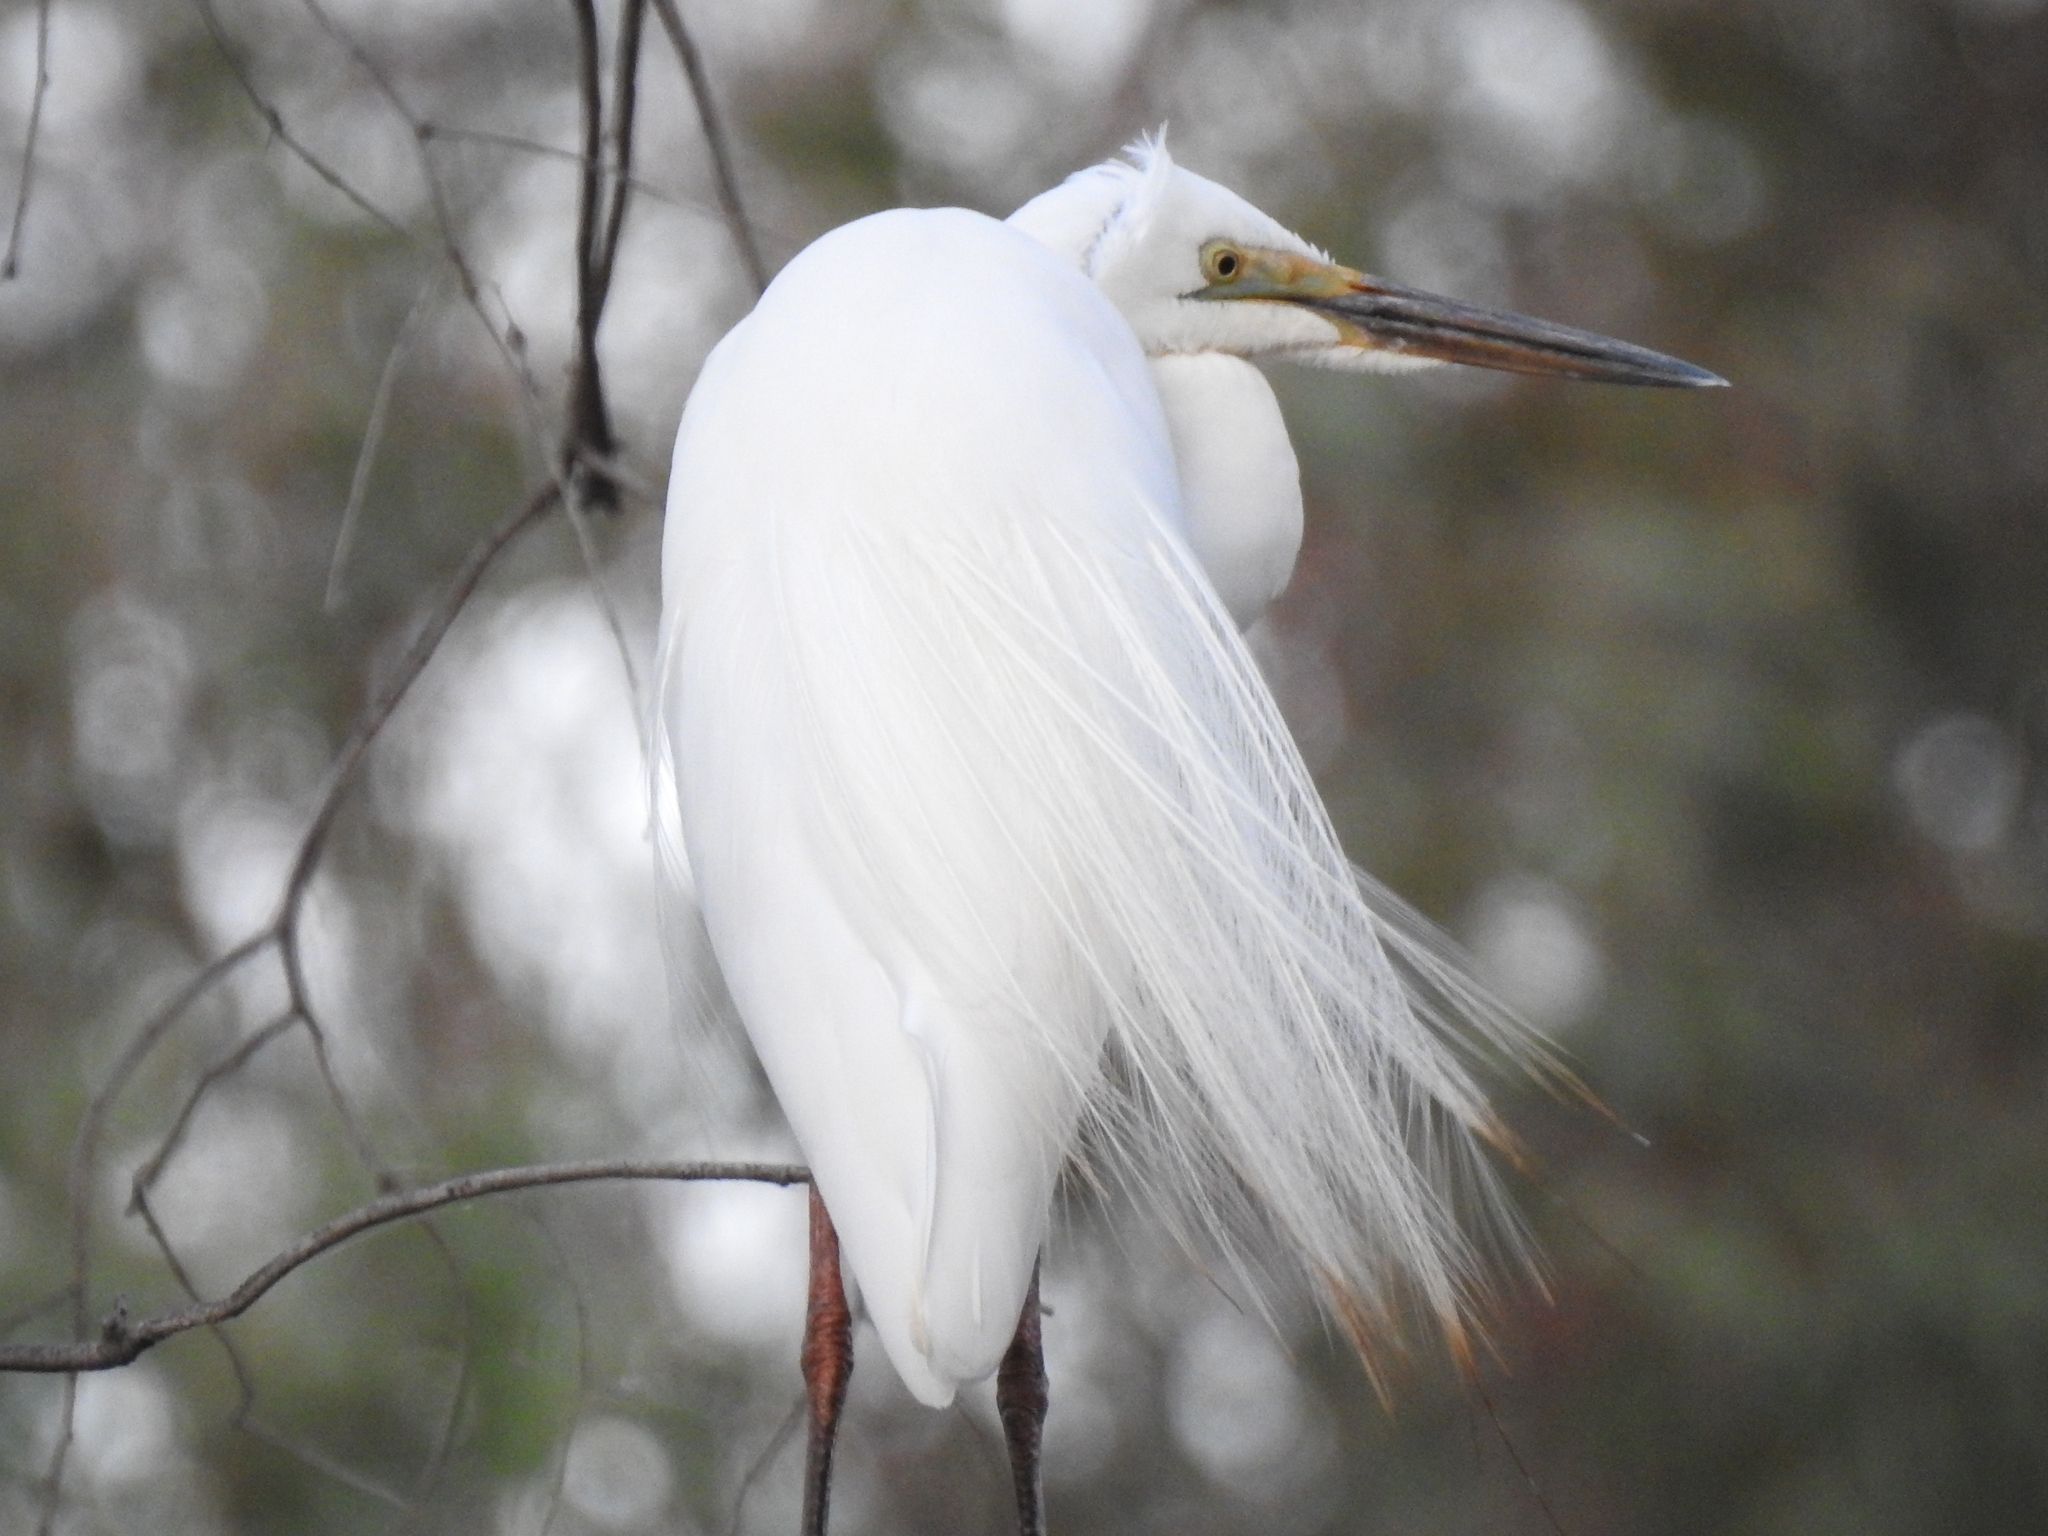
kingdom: Animalia
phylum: Chordata
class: Aves
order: Pelecaniformes
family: Ardeidae
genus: Ardea
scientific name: Ardea alba
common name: Great egret
